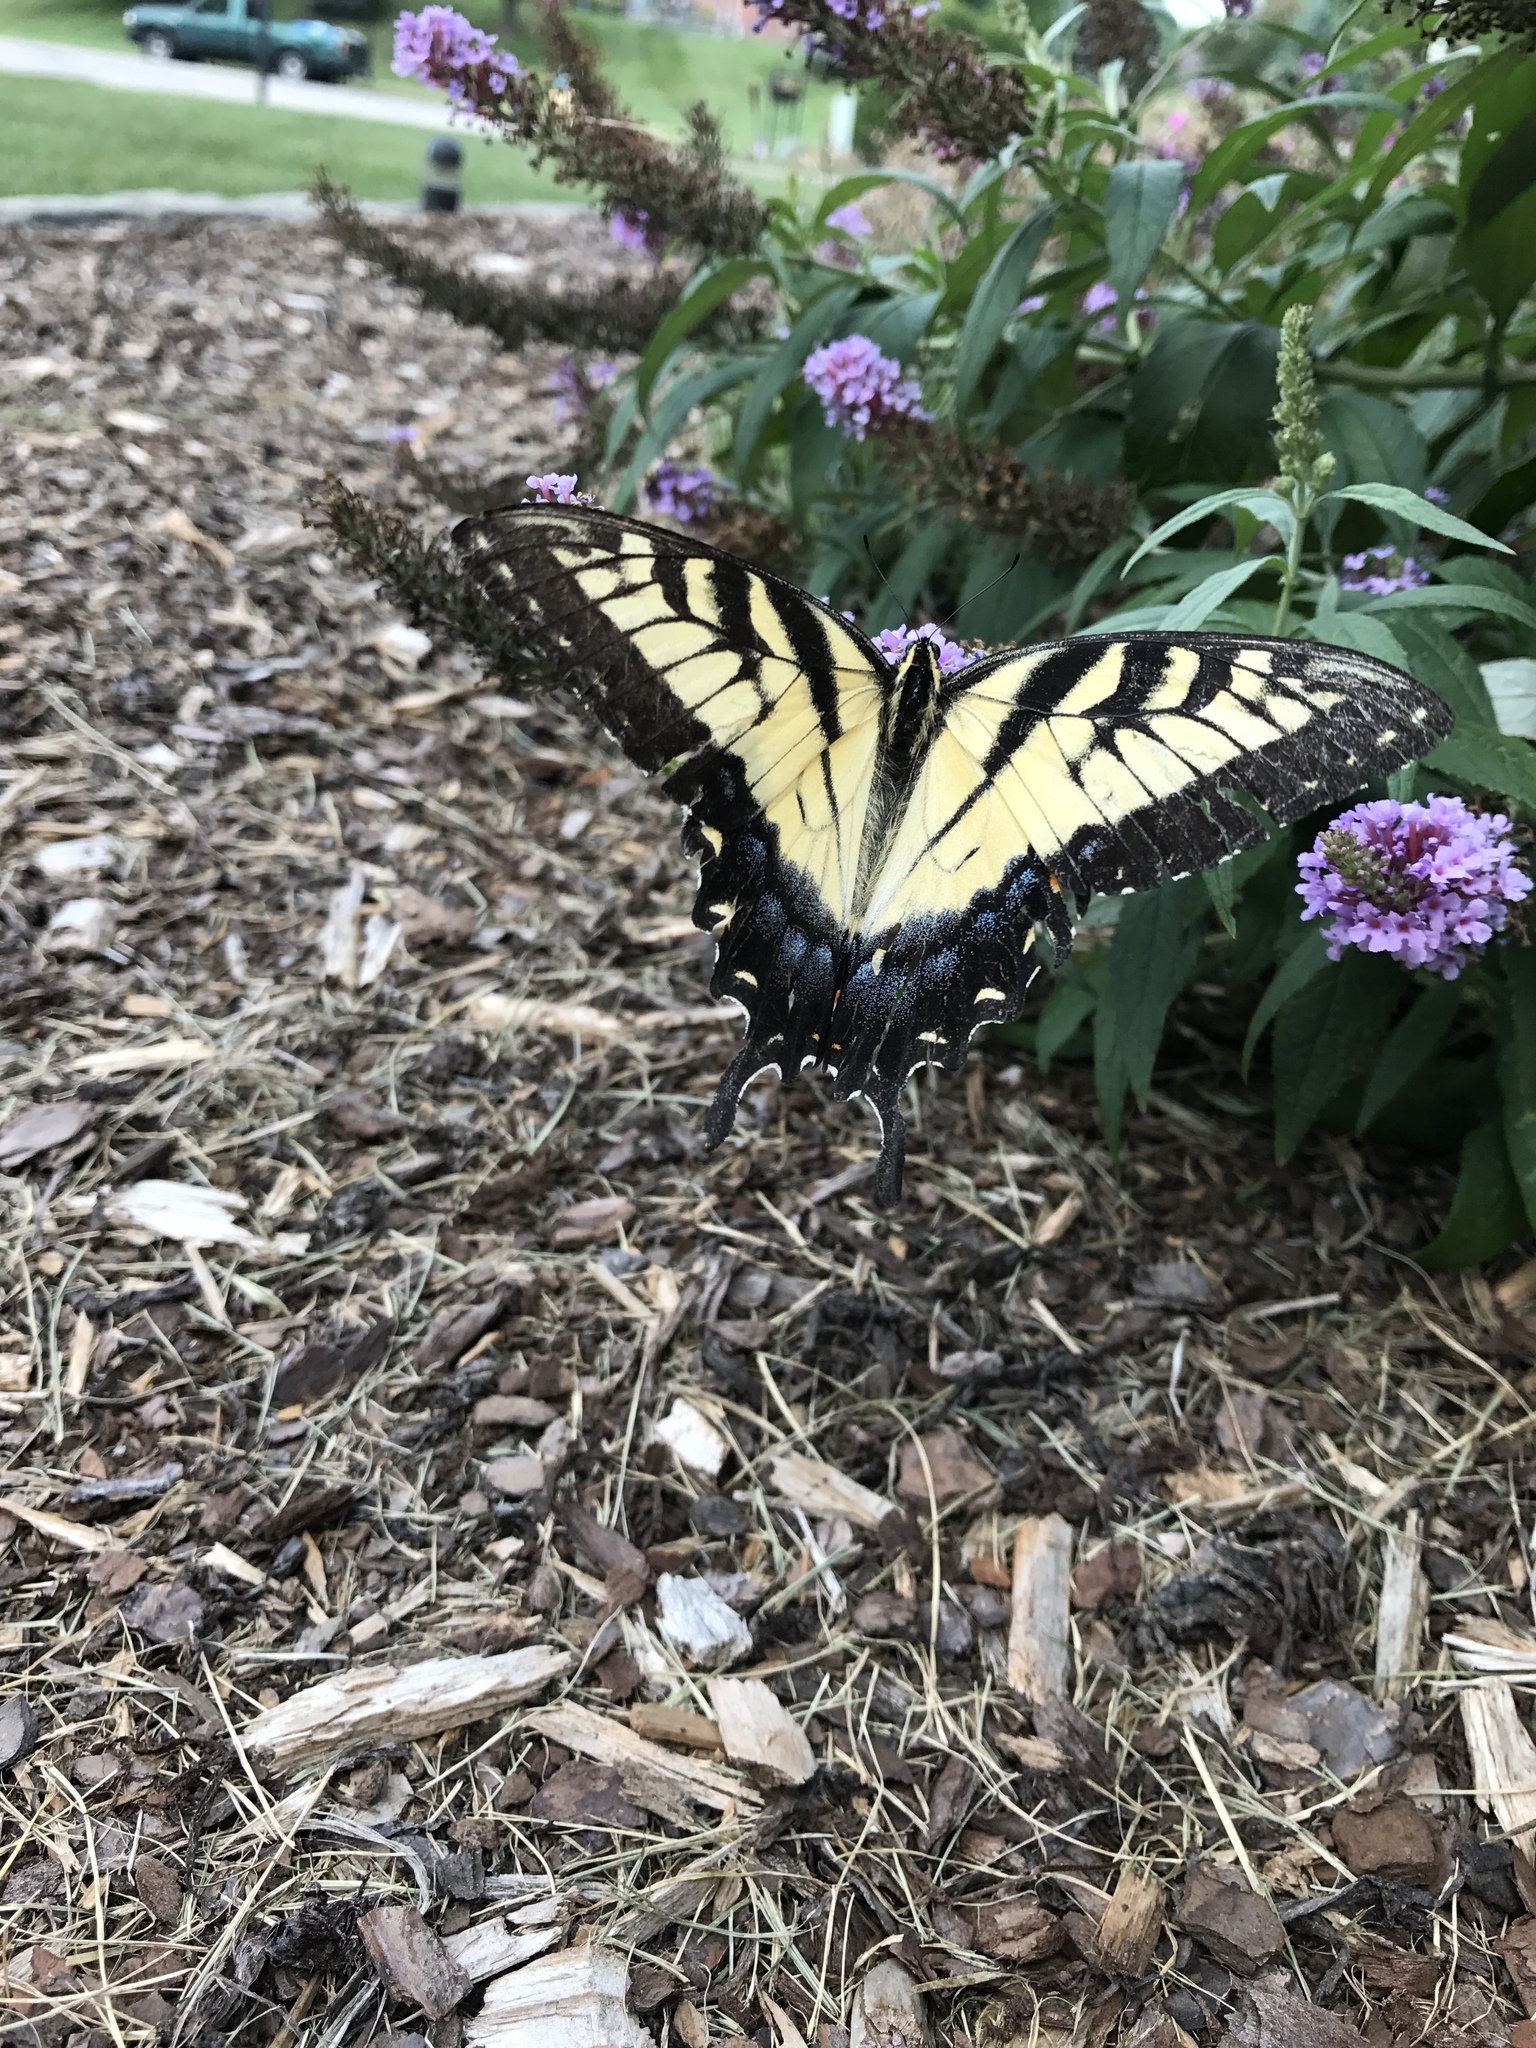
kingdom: Animalia
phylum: Arthropoda
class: Insecta
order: Lepidoptera
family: Papilionidae
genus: Papilio
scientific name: Papilio glaucus
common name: Tiger swallowtail
